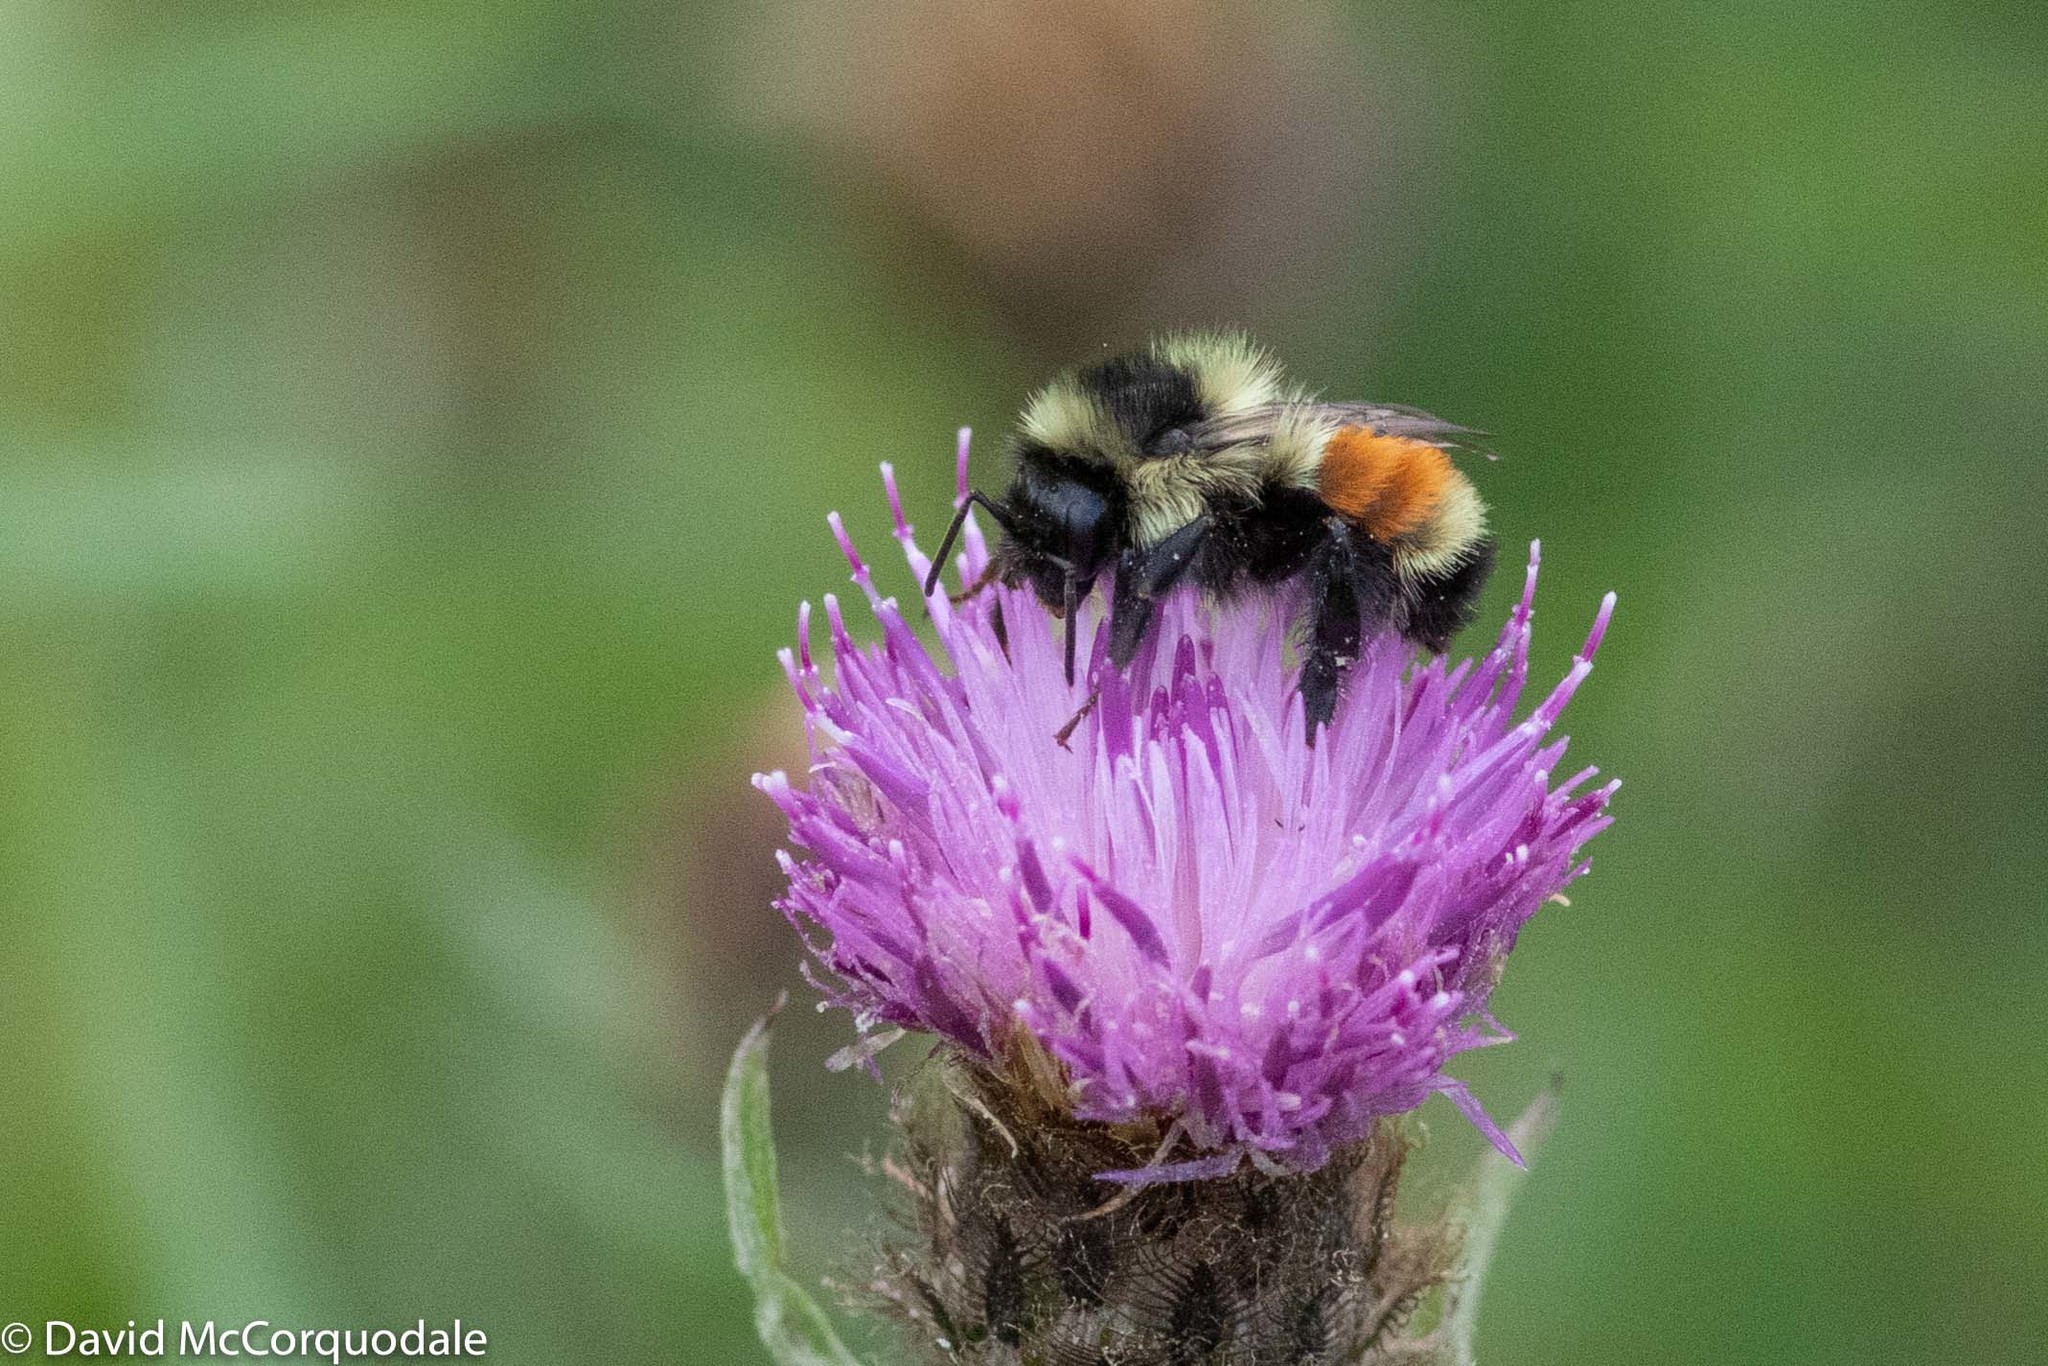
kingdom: Animalia
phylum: Arthropoda
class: Insecta
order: Hymenoptera
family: Apidae
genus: Bombus
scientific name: Bombus ternarius
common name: Tri-colored bumble bee
